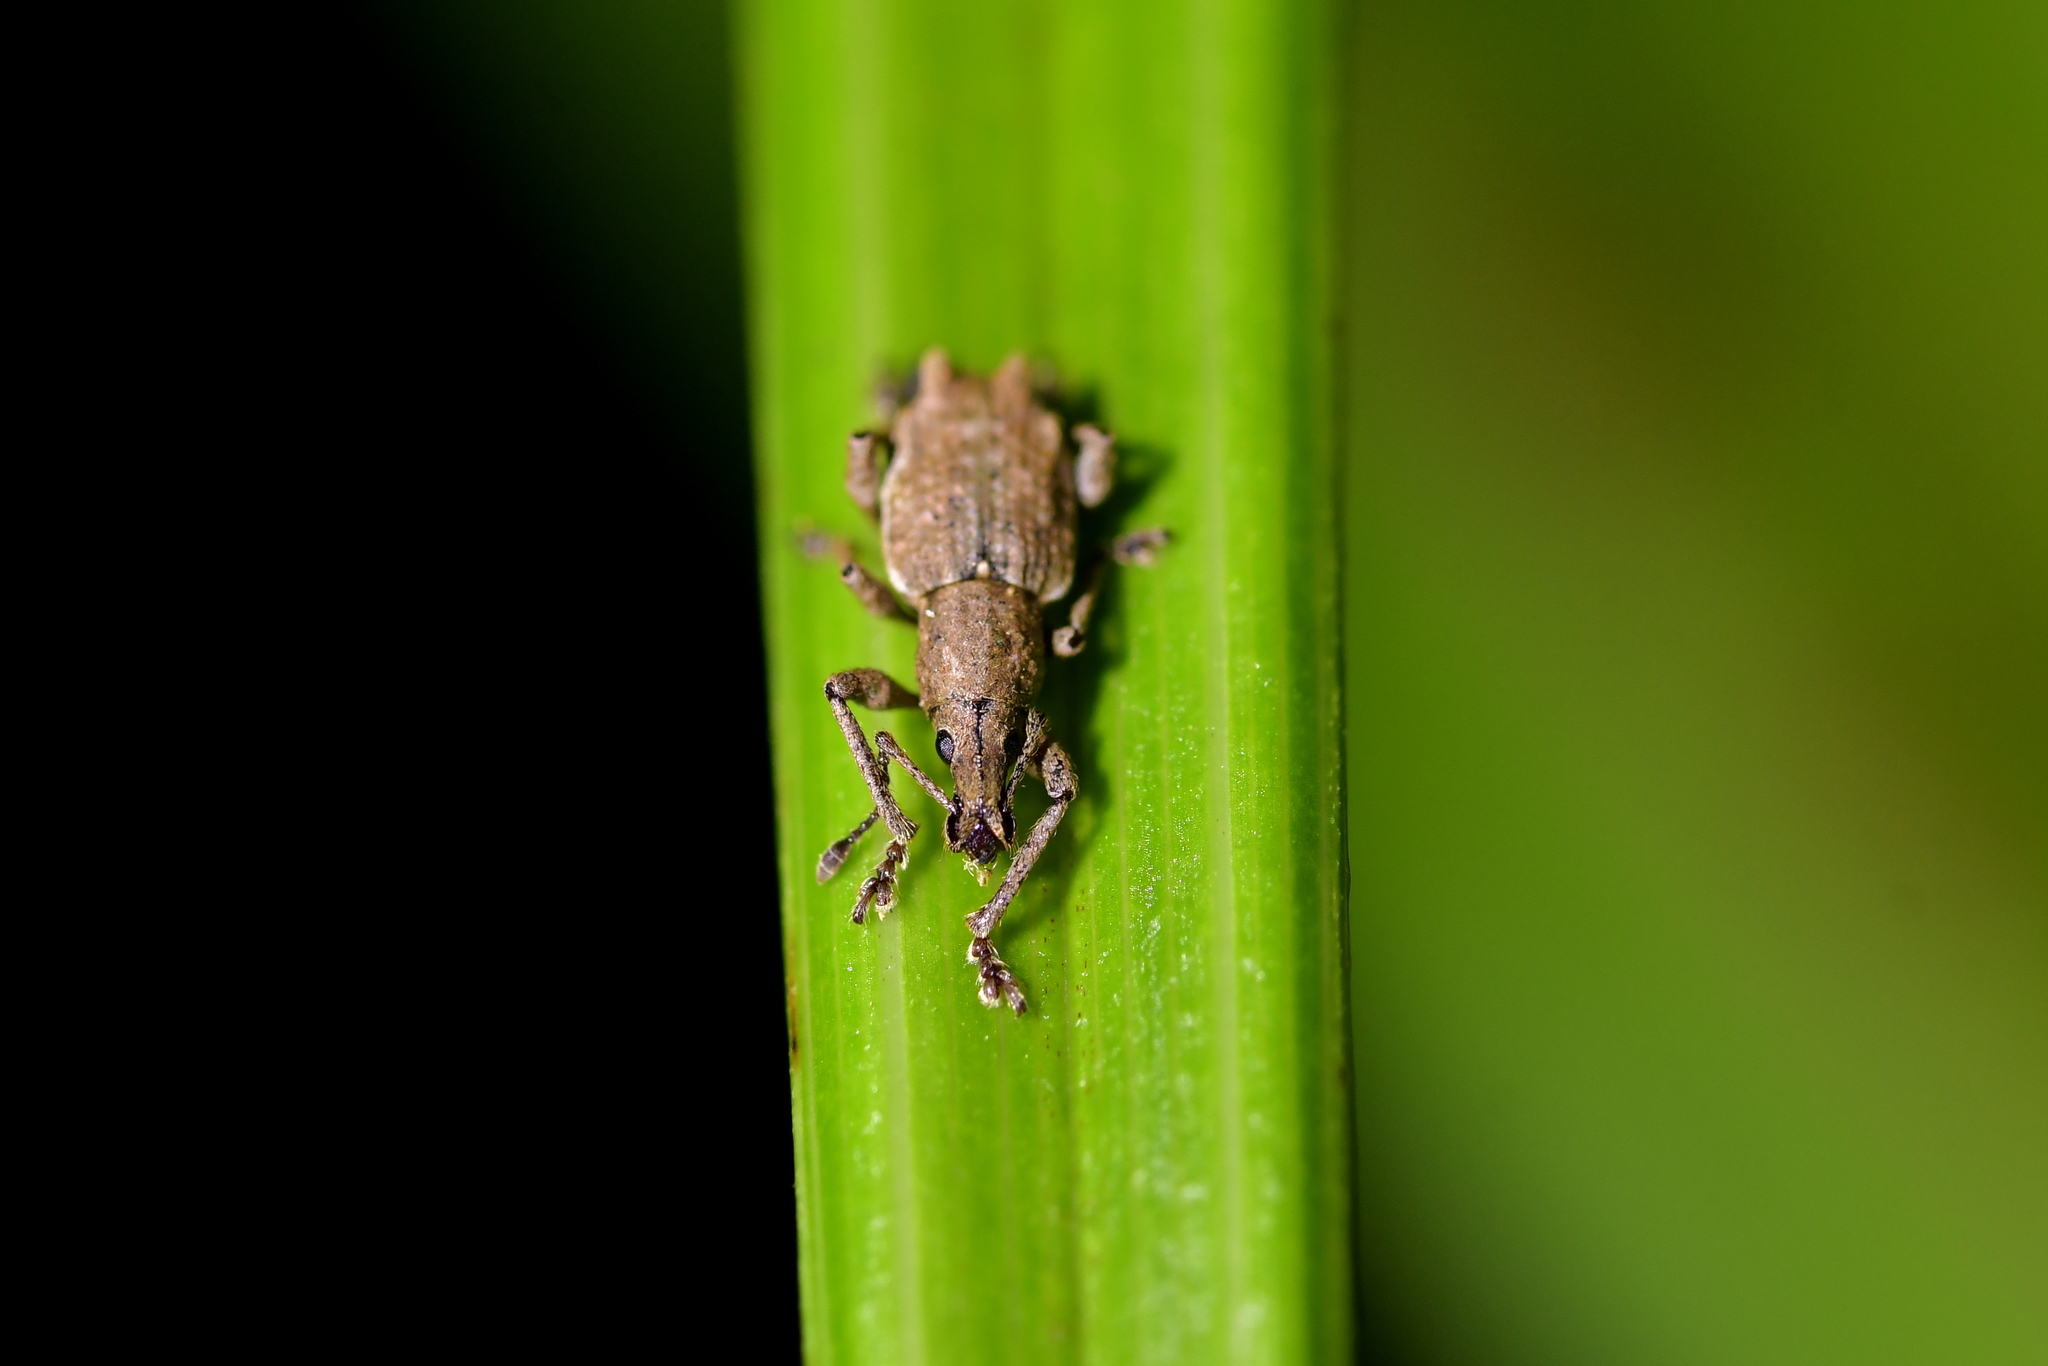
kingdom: Animalia
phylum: Arthropoda
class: Insecta
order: Coleoptera
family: Curculionidae
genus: Catoptes
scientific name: Catoptes binodis
